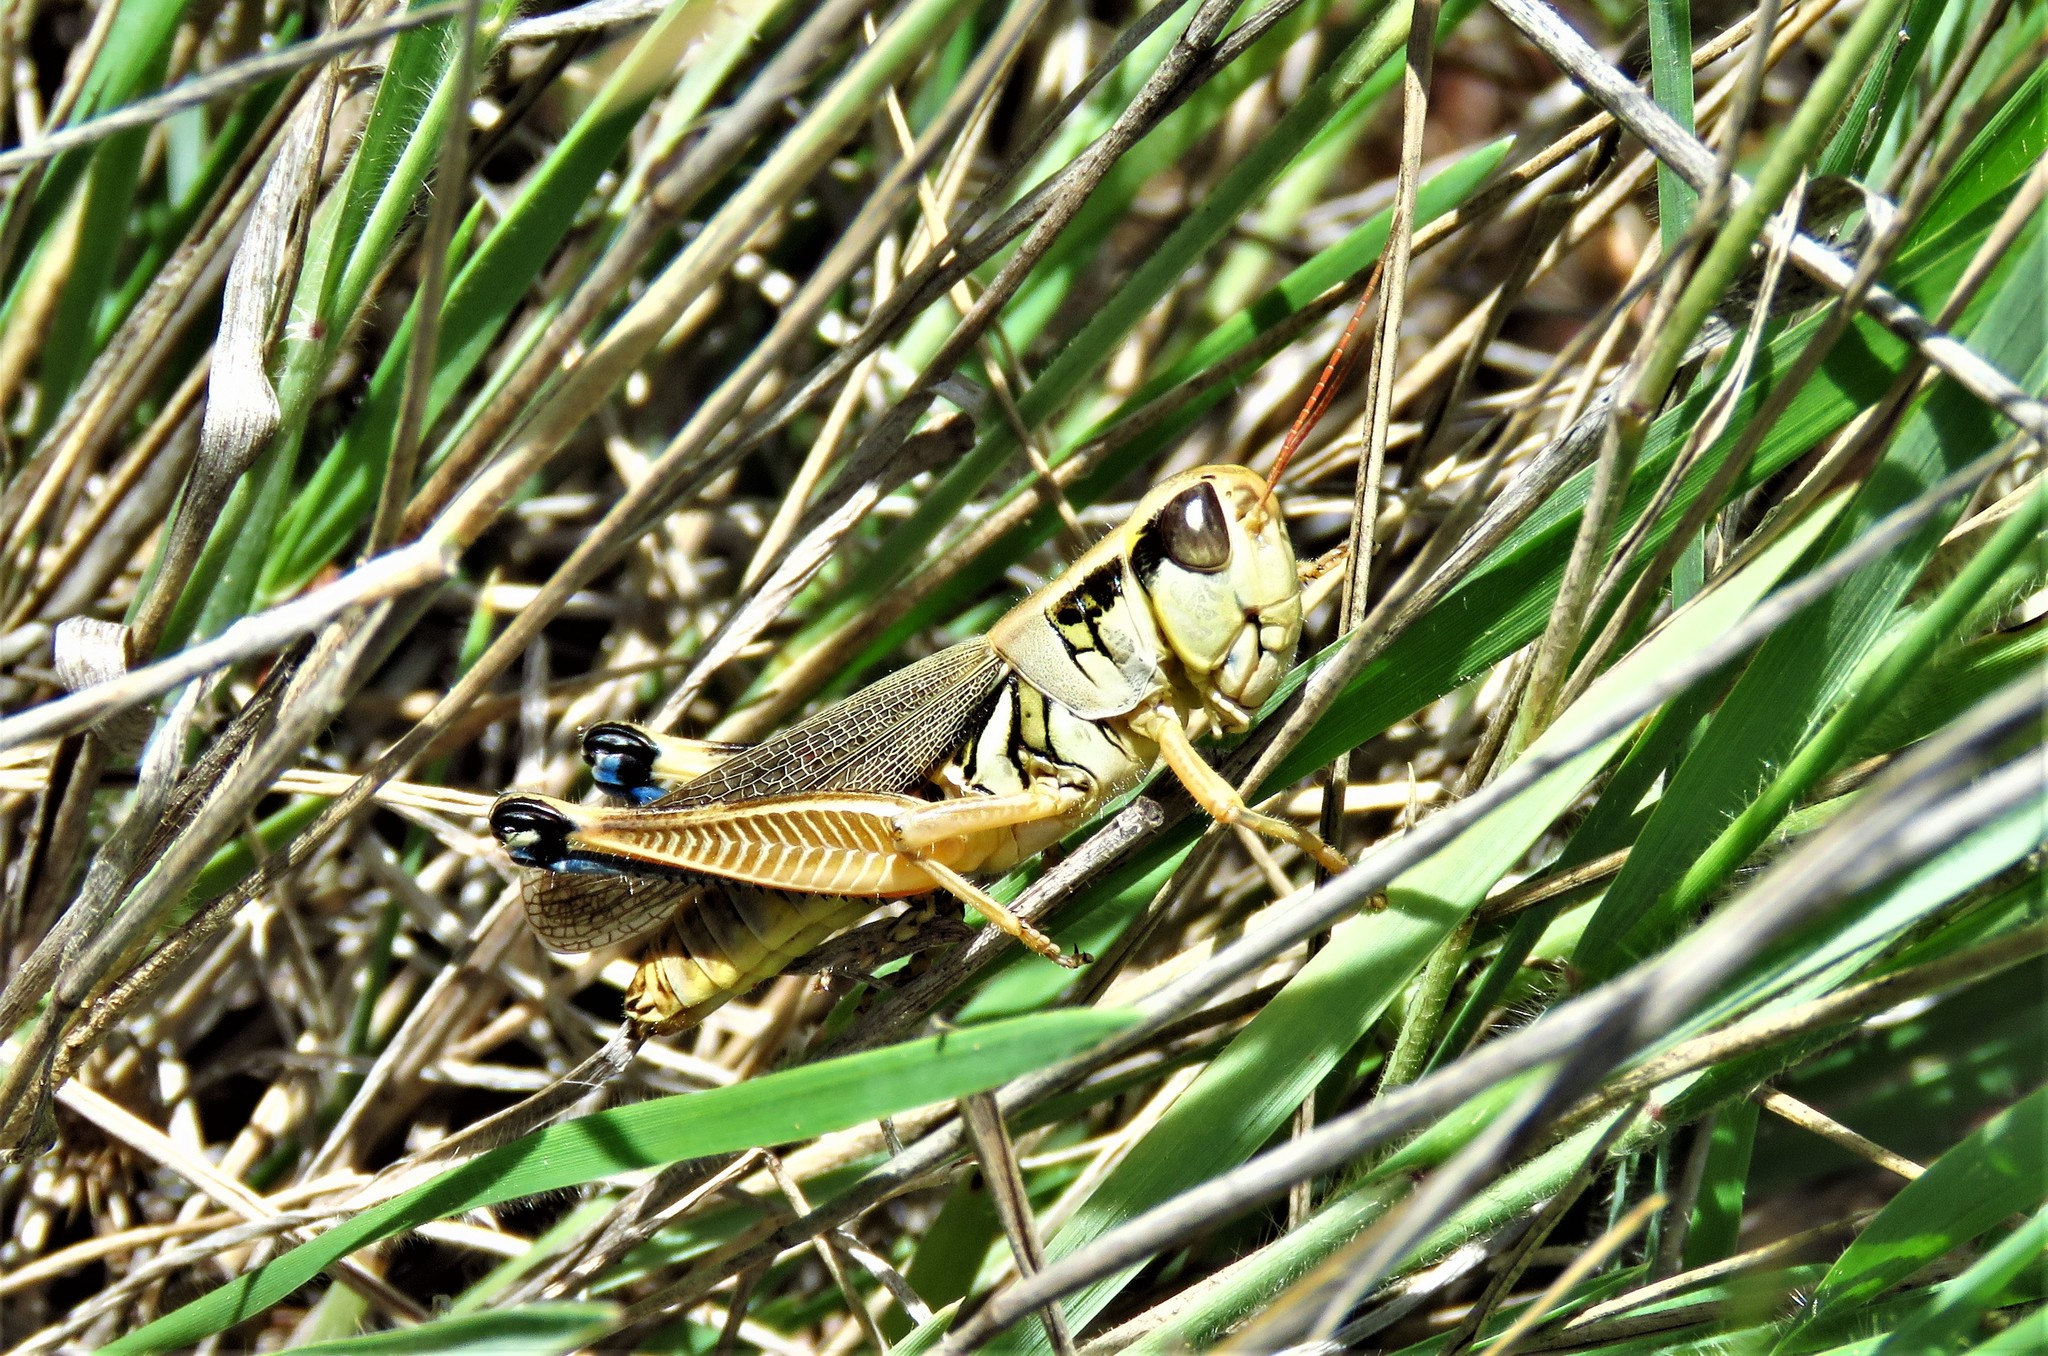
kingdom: Animalia
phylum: Arthropoda
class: Insecta
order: Orthoptera
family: Acrididae
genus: Phoetaliotes
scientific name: Phoetaliotes nebrascensis
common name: Large-headed grasshopper
